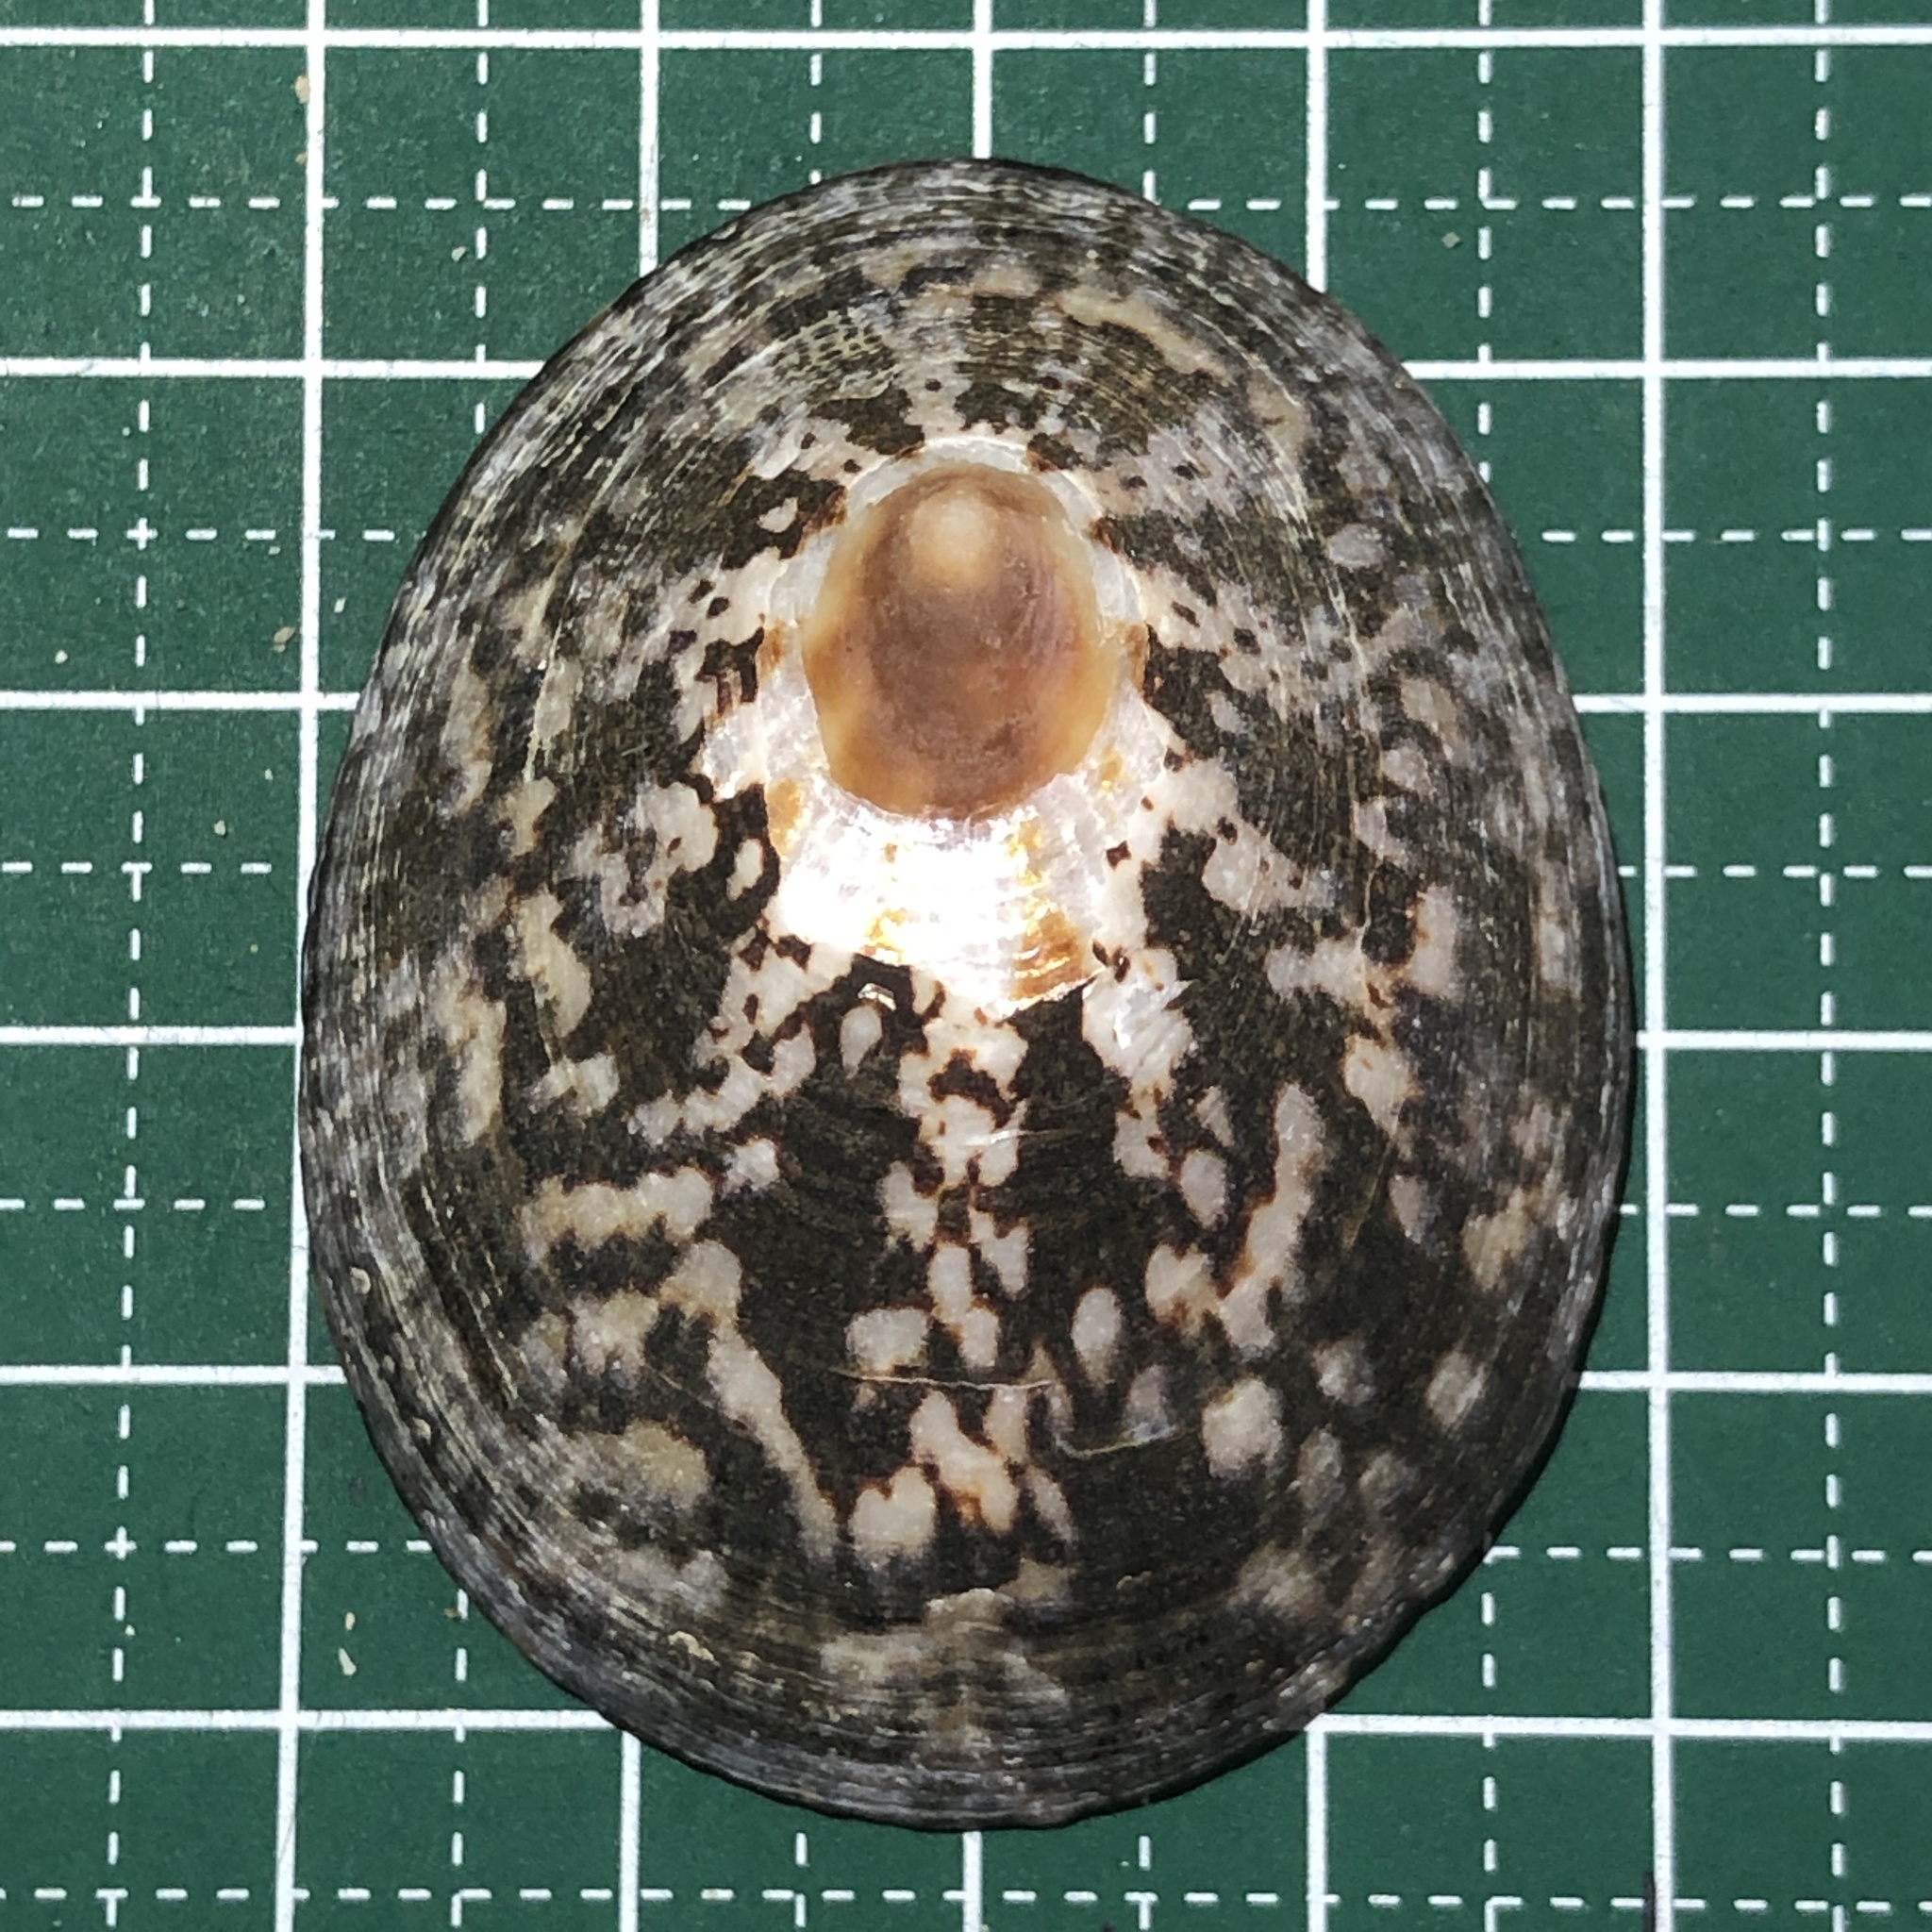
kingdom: Animalia
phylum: Mollusca
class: Gastropoda
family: Nacellidae
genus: Cellana
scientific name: Cellana testudinaria
